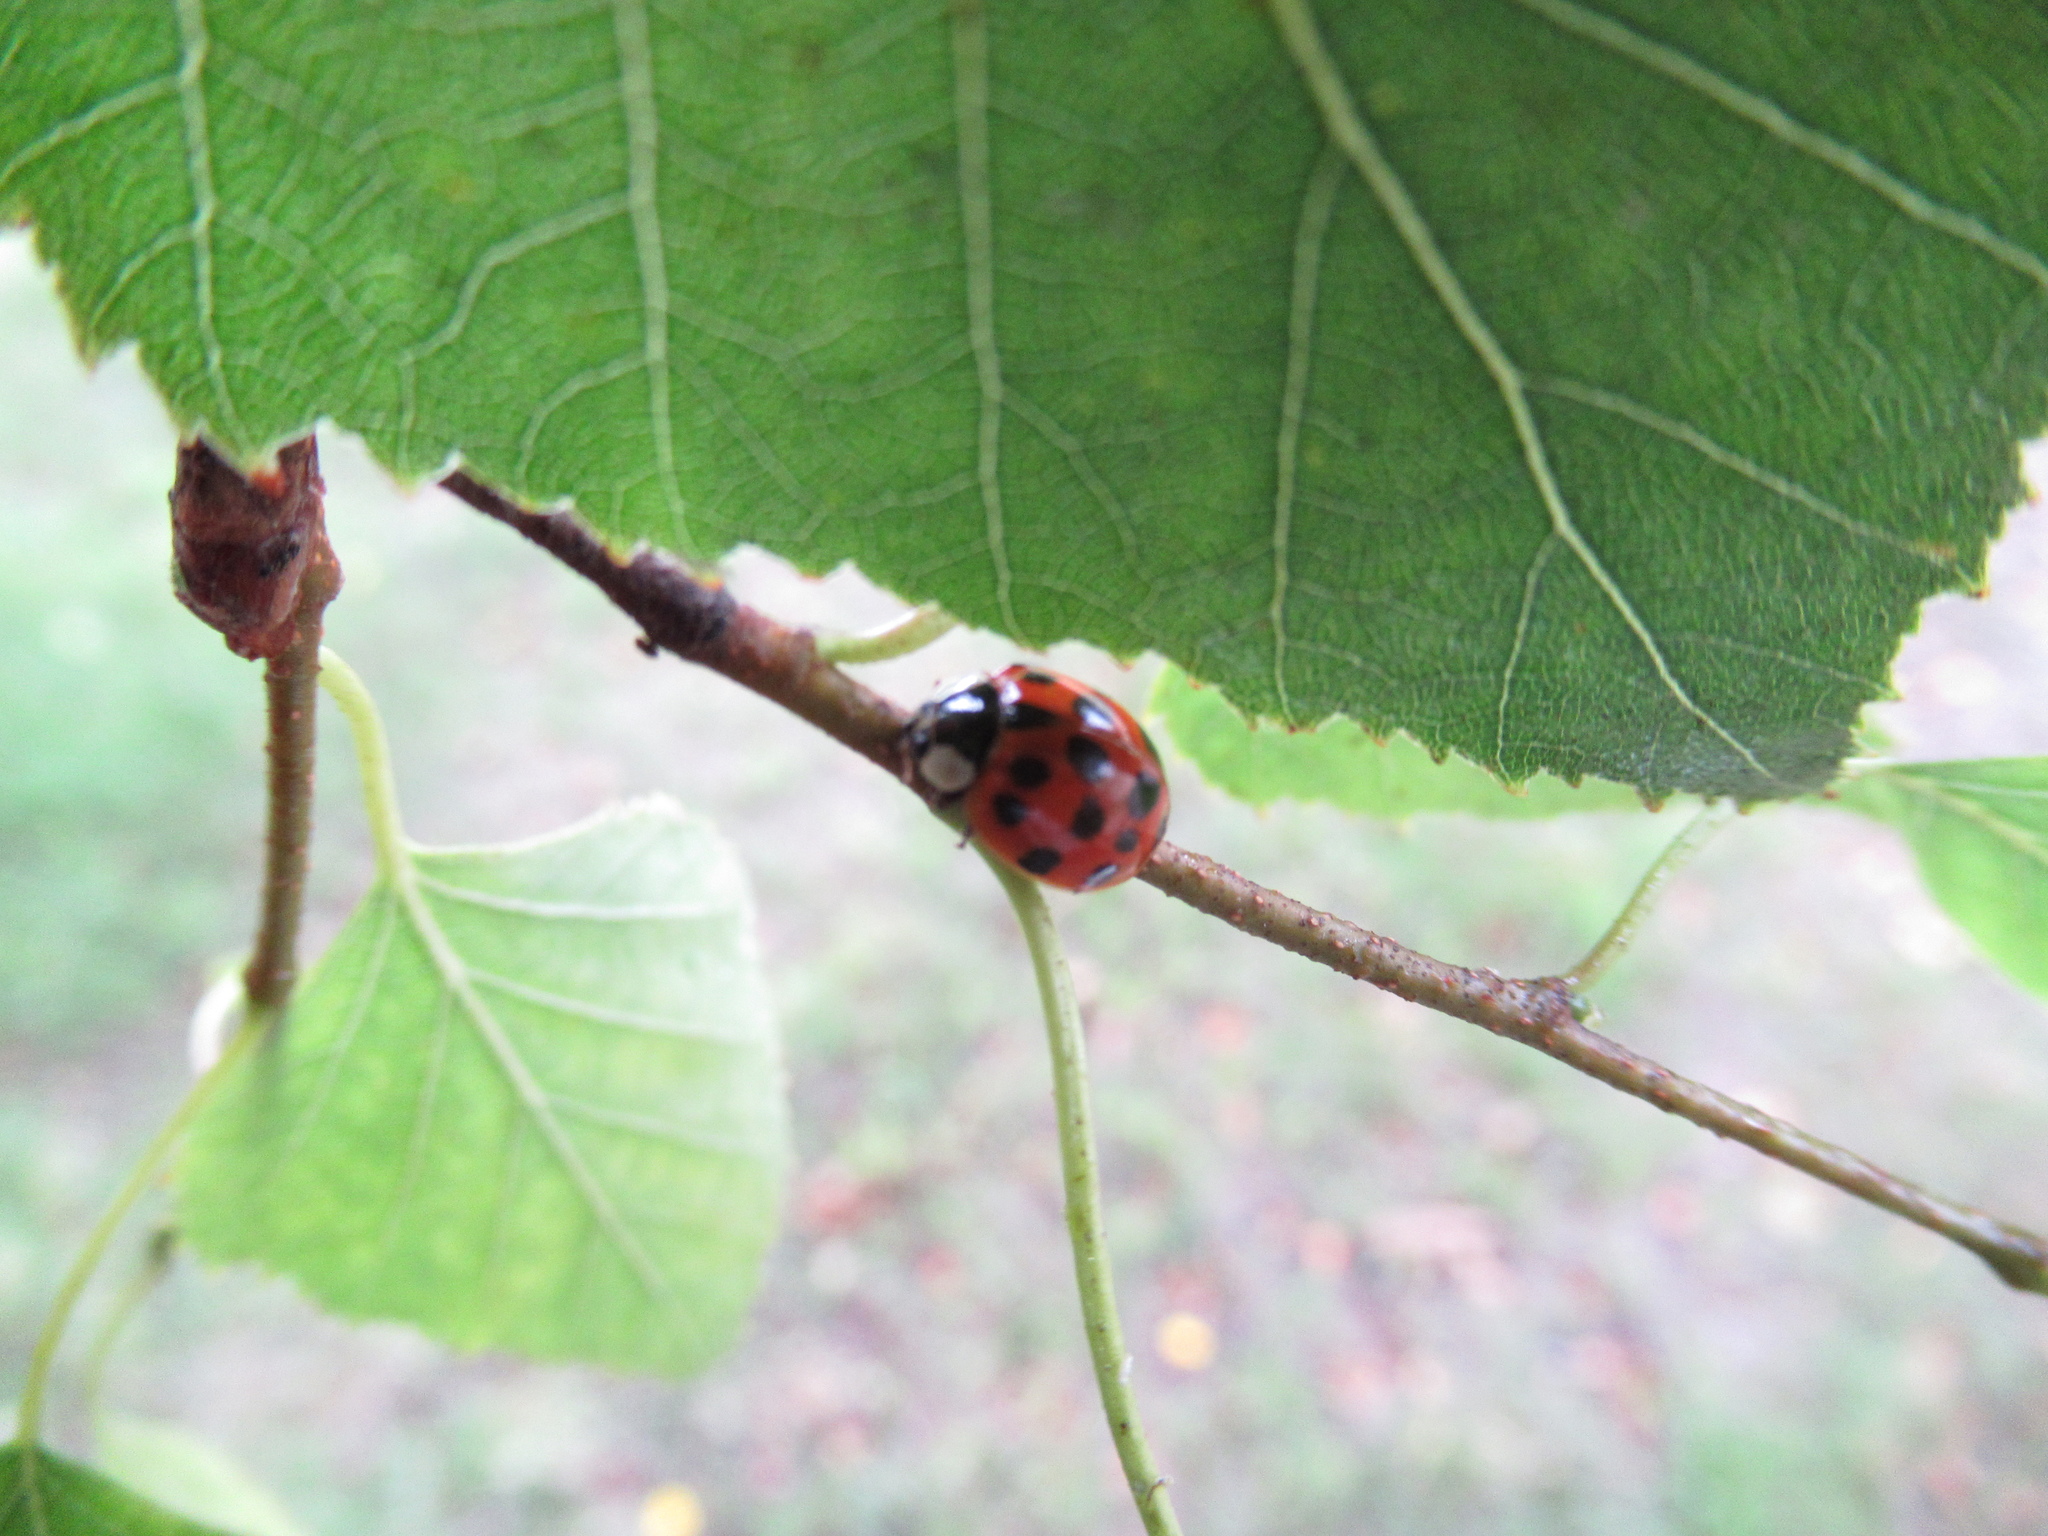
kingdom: Animalia
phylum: Arthropoda
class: Insecta
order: Coleoptera
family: Coccinellidae
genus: Harmonia
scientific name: Harmonia axyridis
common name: Harlequin ladybird
